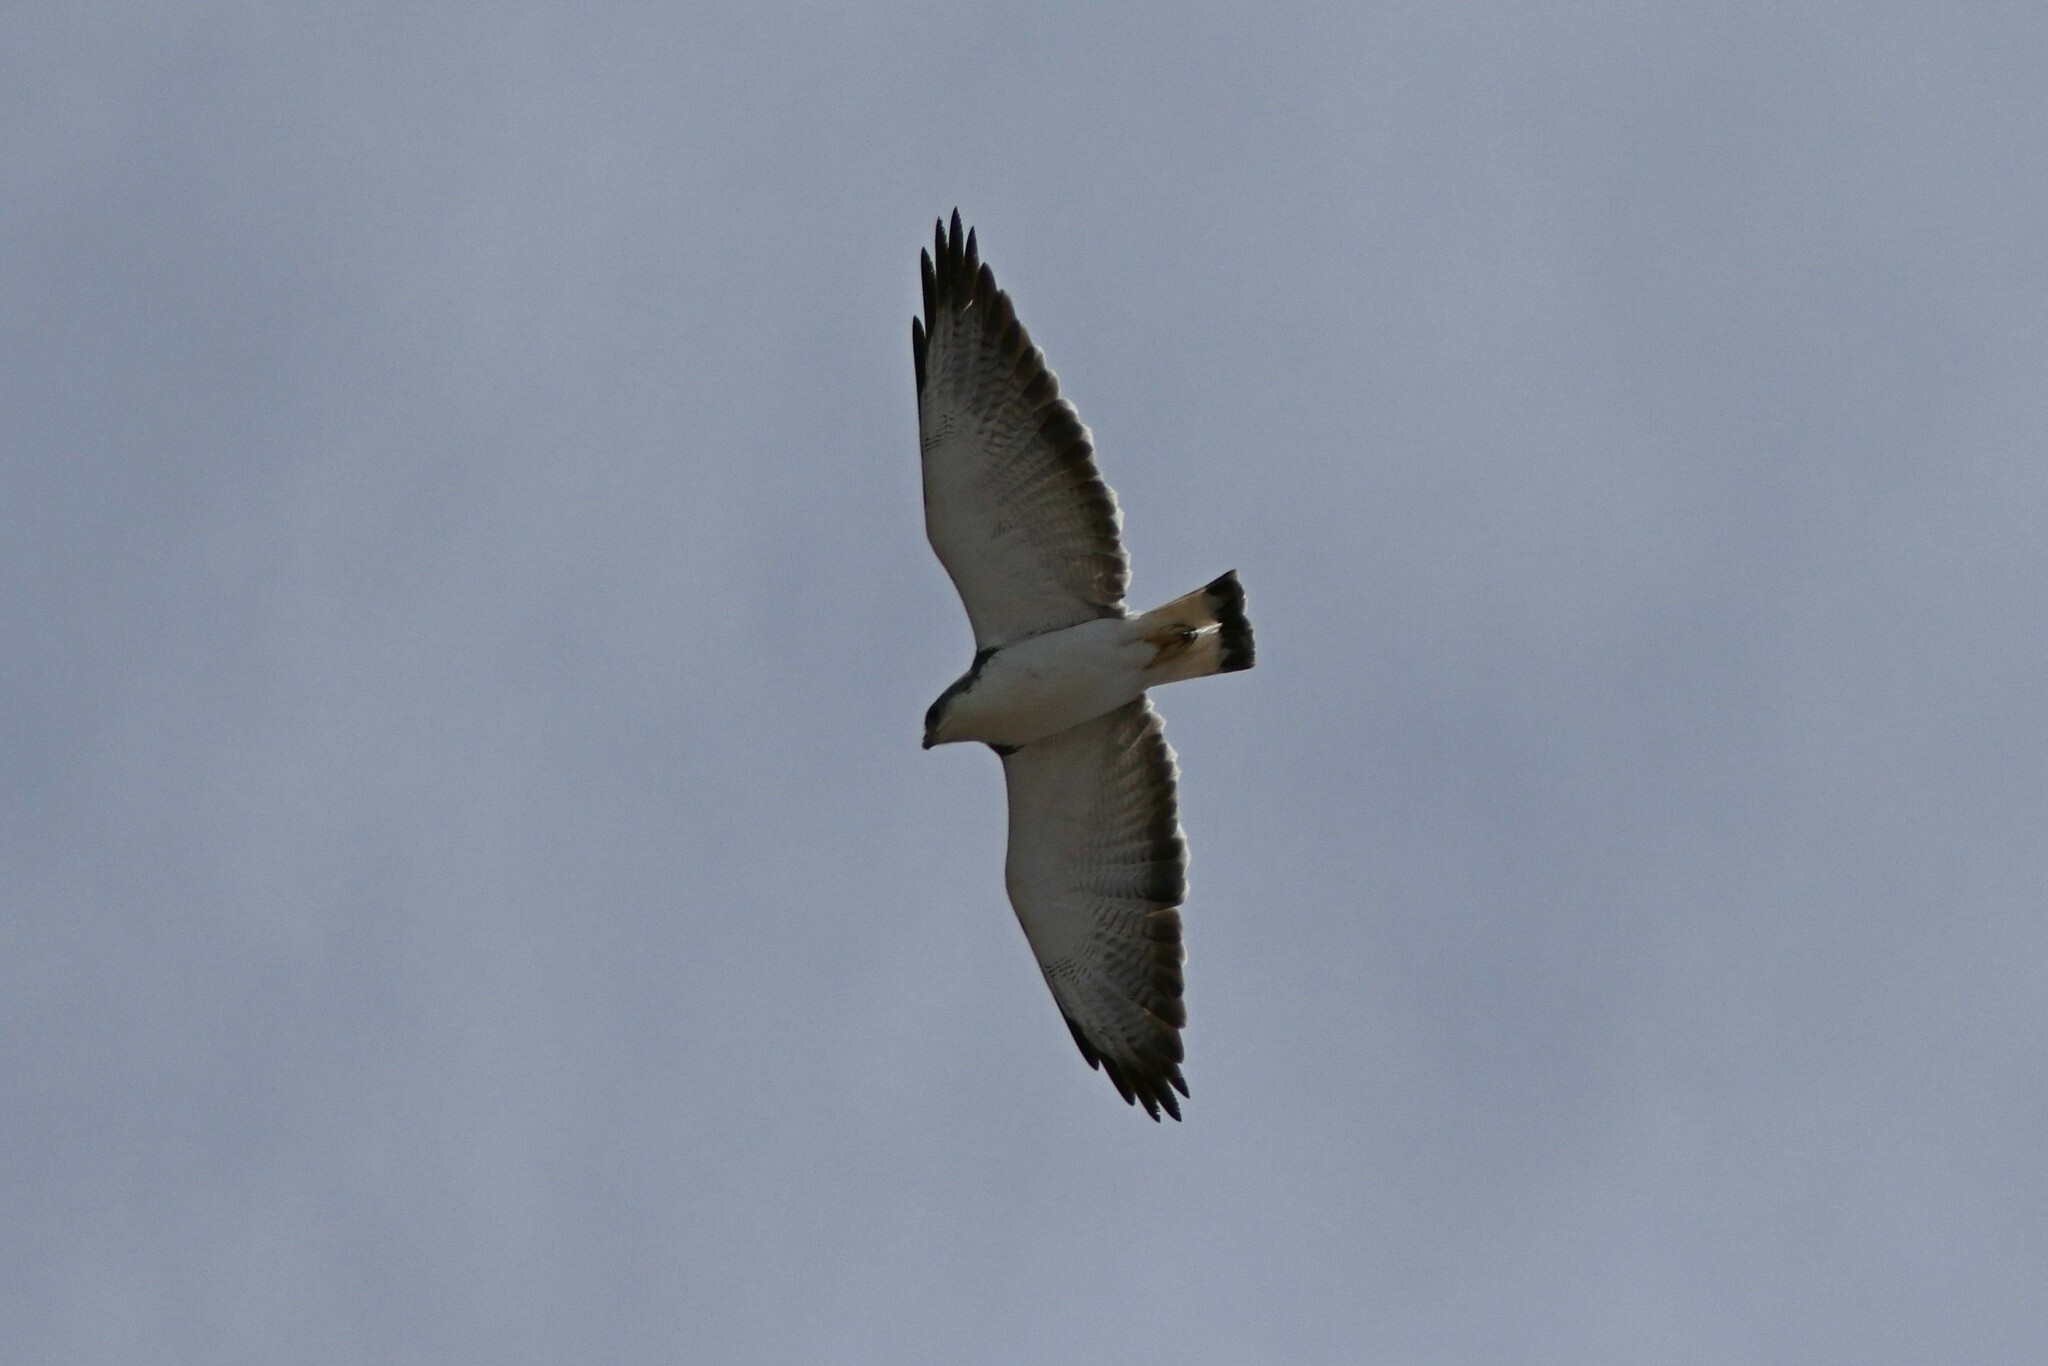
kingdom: Animalia
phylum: Chordata
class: Aves
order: Accipitriformes
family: Accipitridae
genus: Buteo
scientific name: Buteo polyosoma
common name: Variable hawk
